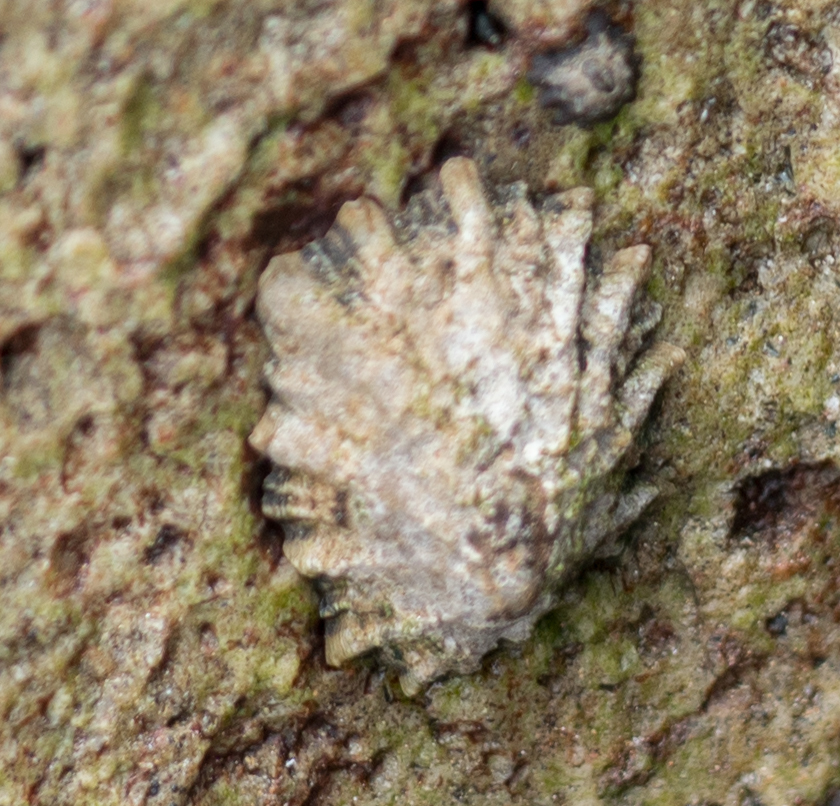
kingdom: Animalia
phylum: Mollusca
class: Gastropoda
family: Lottiidae
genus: Lottia
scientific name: Lottia scabra
